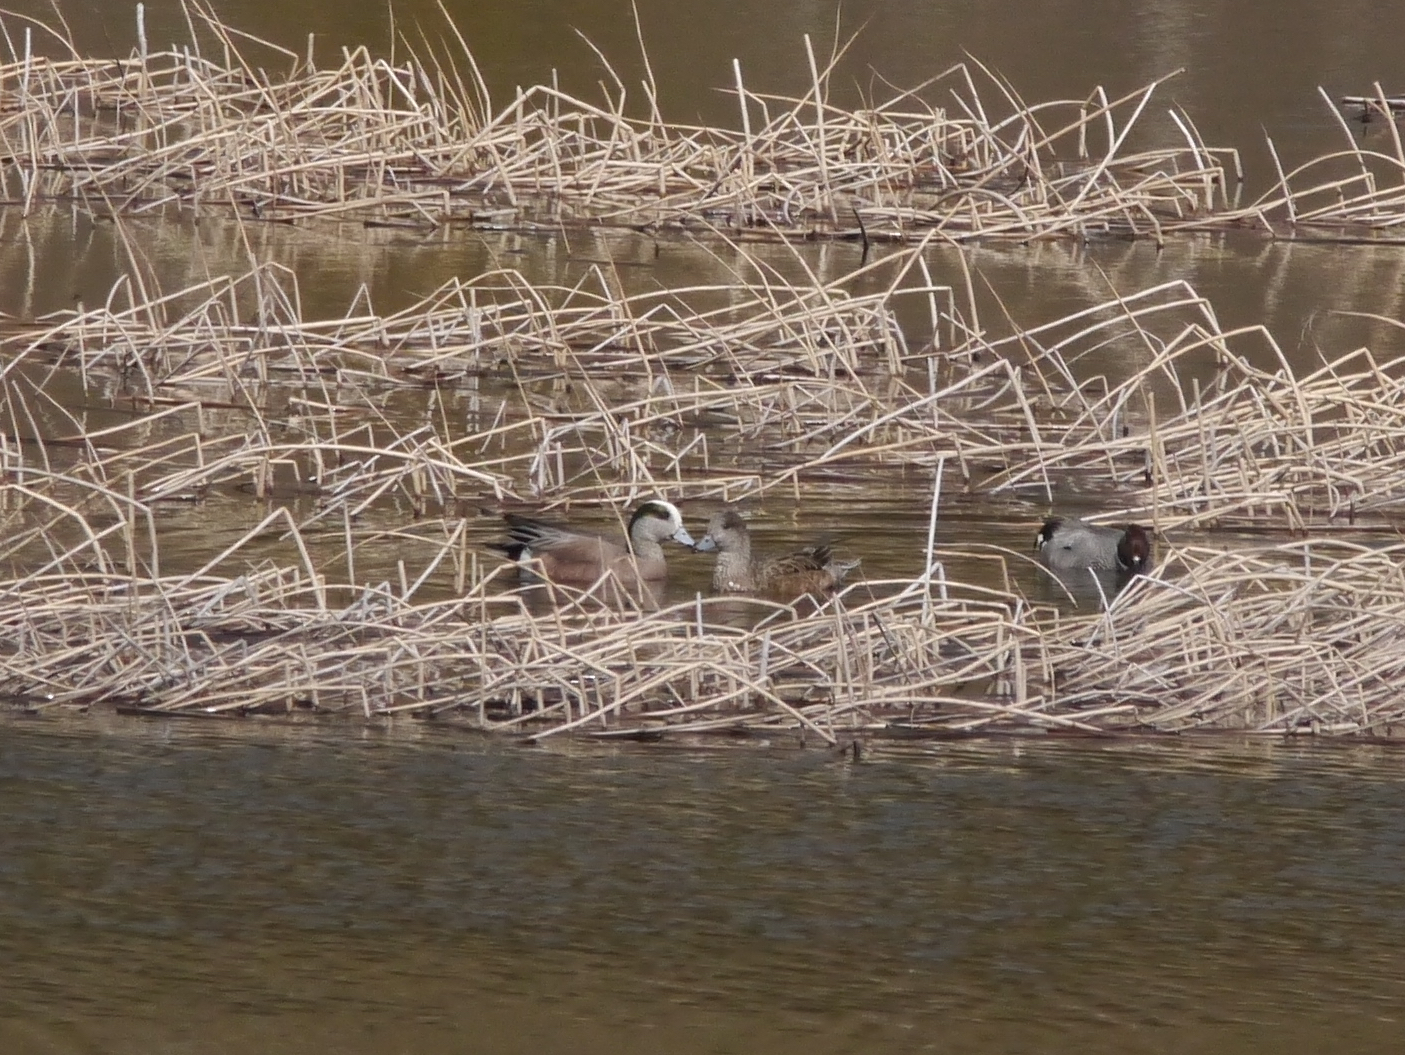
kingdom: Animalia
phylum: Chordata
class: Aves
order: Anseriformes
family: Anatidae
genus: Mareca
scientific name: Mareca americana
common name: American wigeon
